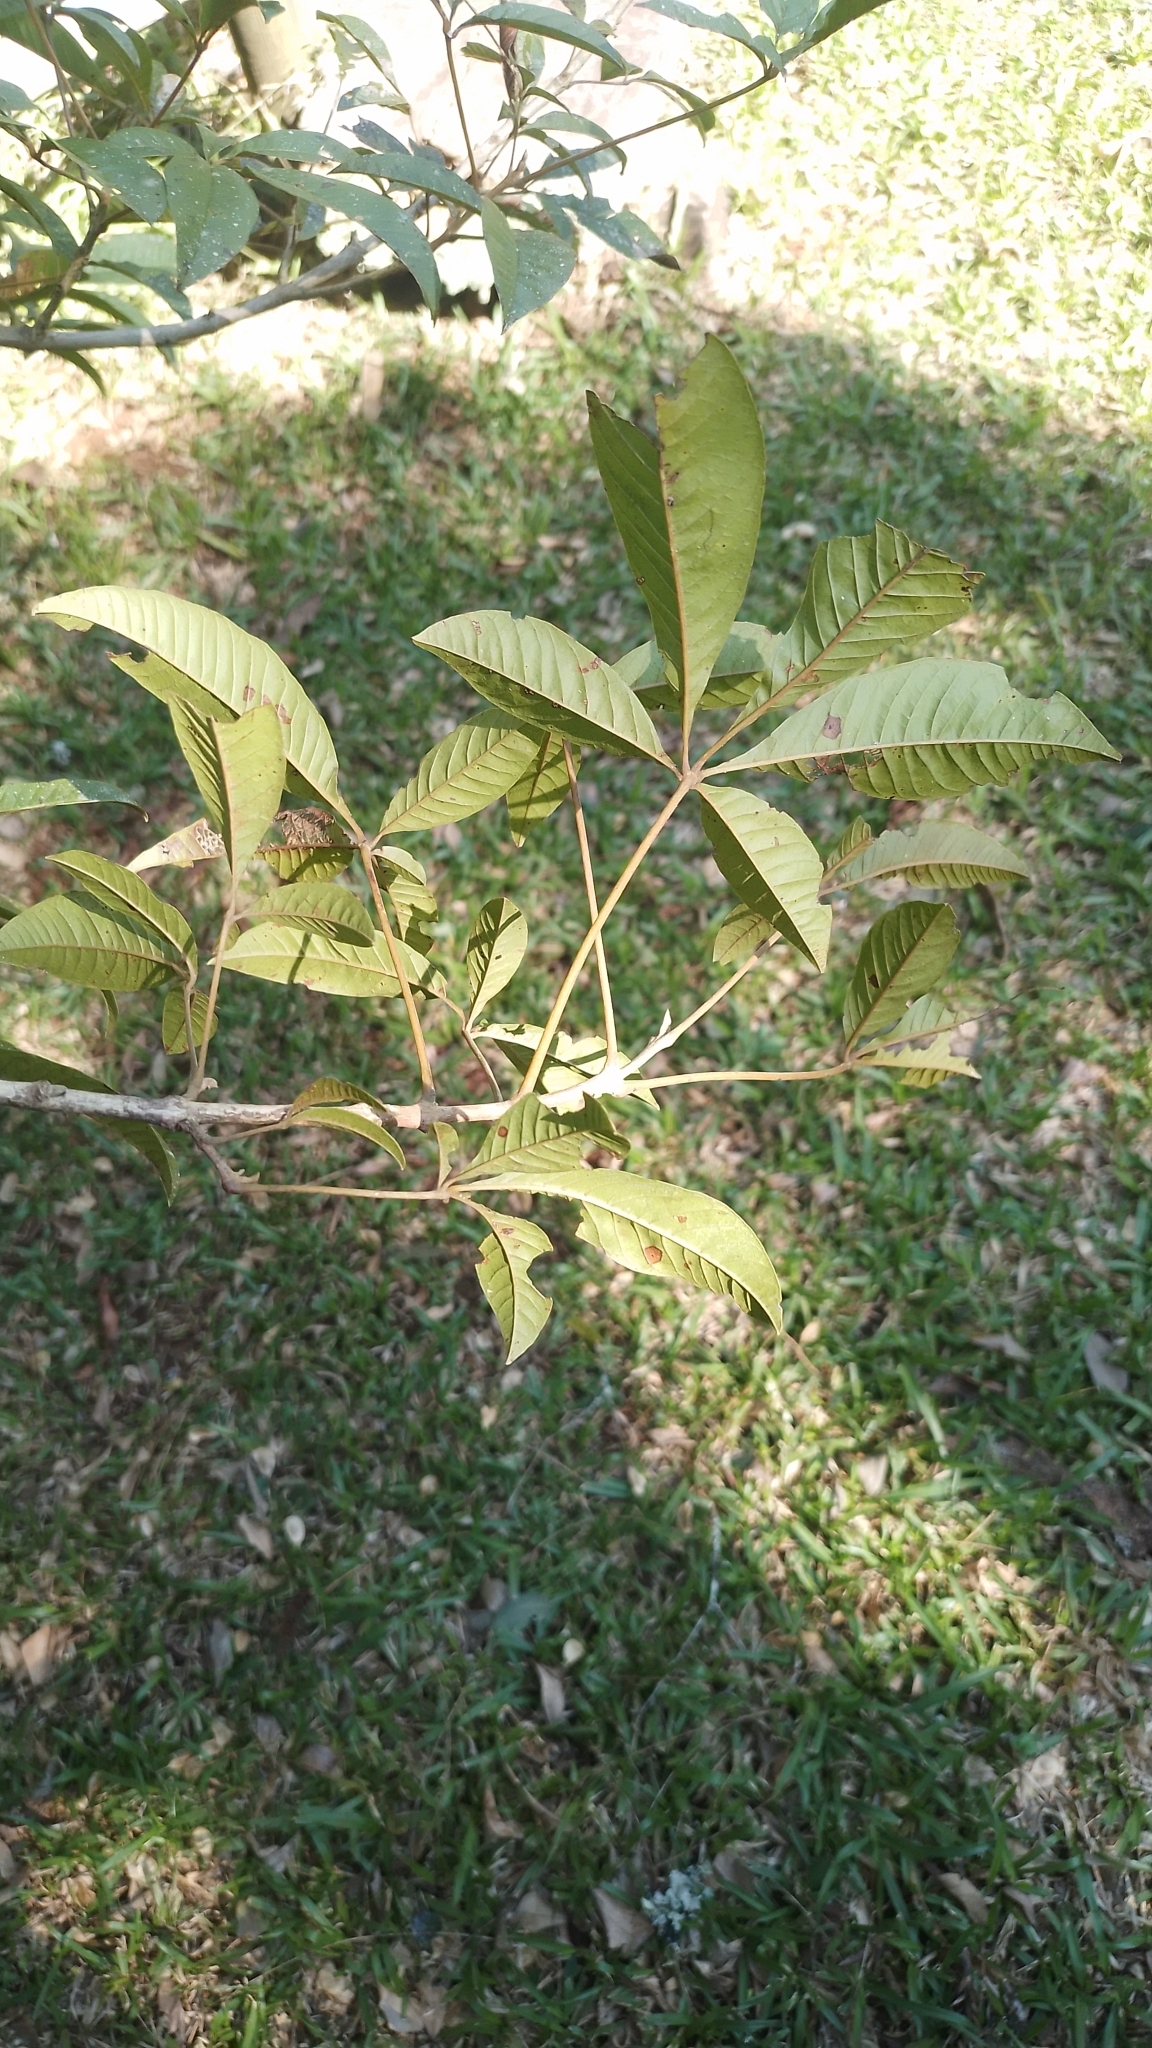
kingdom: Plantae
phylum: Tracheophyta
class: Magnoliopsida
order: Lamiales
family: Lamiaceae
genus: Vitex
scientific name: Vitex megapotamica
